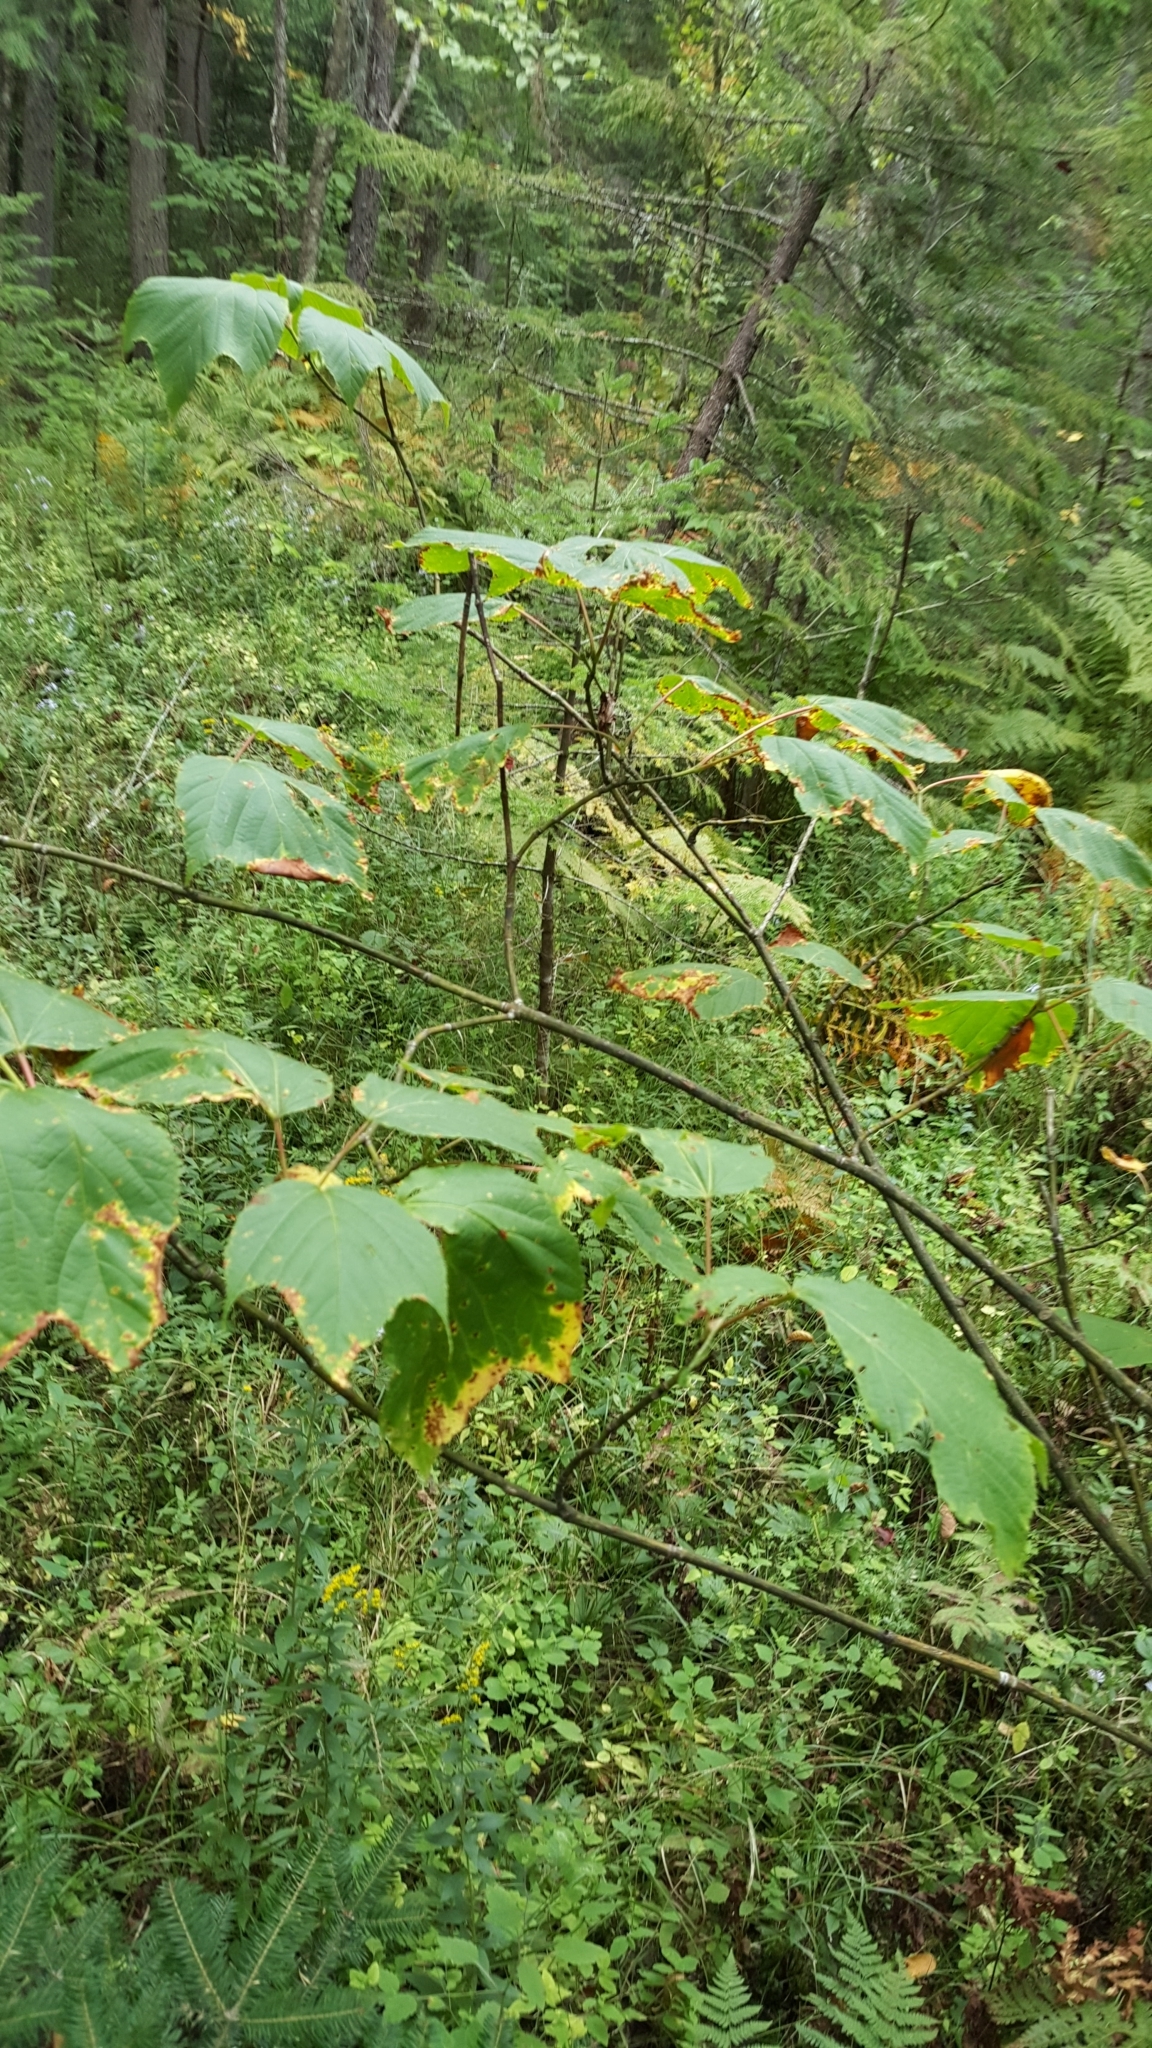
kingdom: Plantae
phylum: Tracheophyta
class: Magnoliopsida
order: Sapindales
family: Sapindaceae
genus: Acer
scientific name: Acer pensylvanicum
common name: Moosewood
